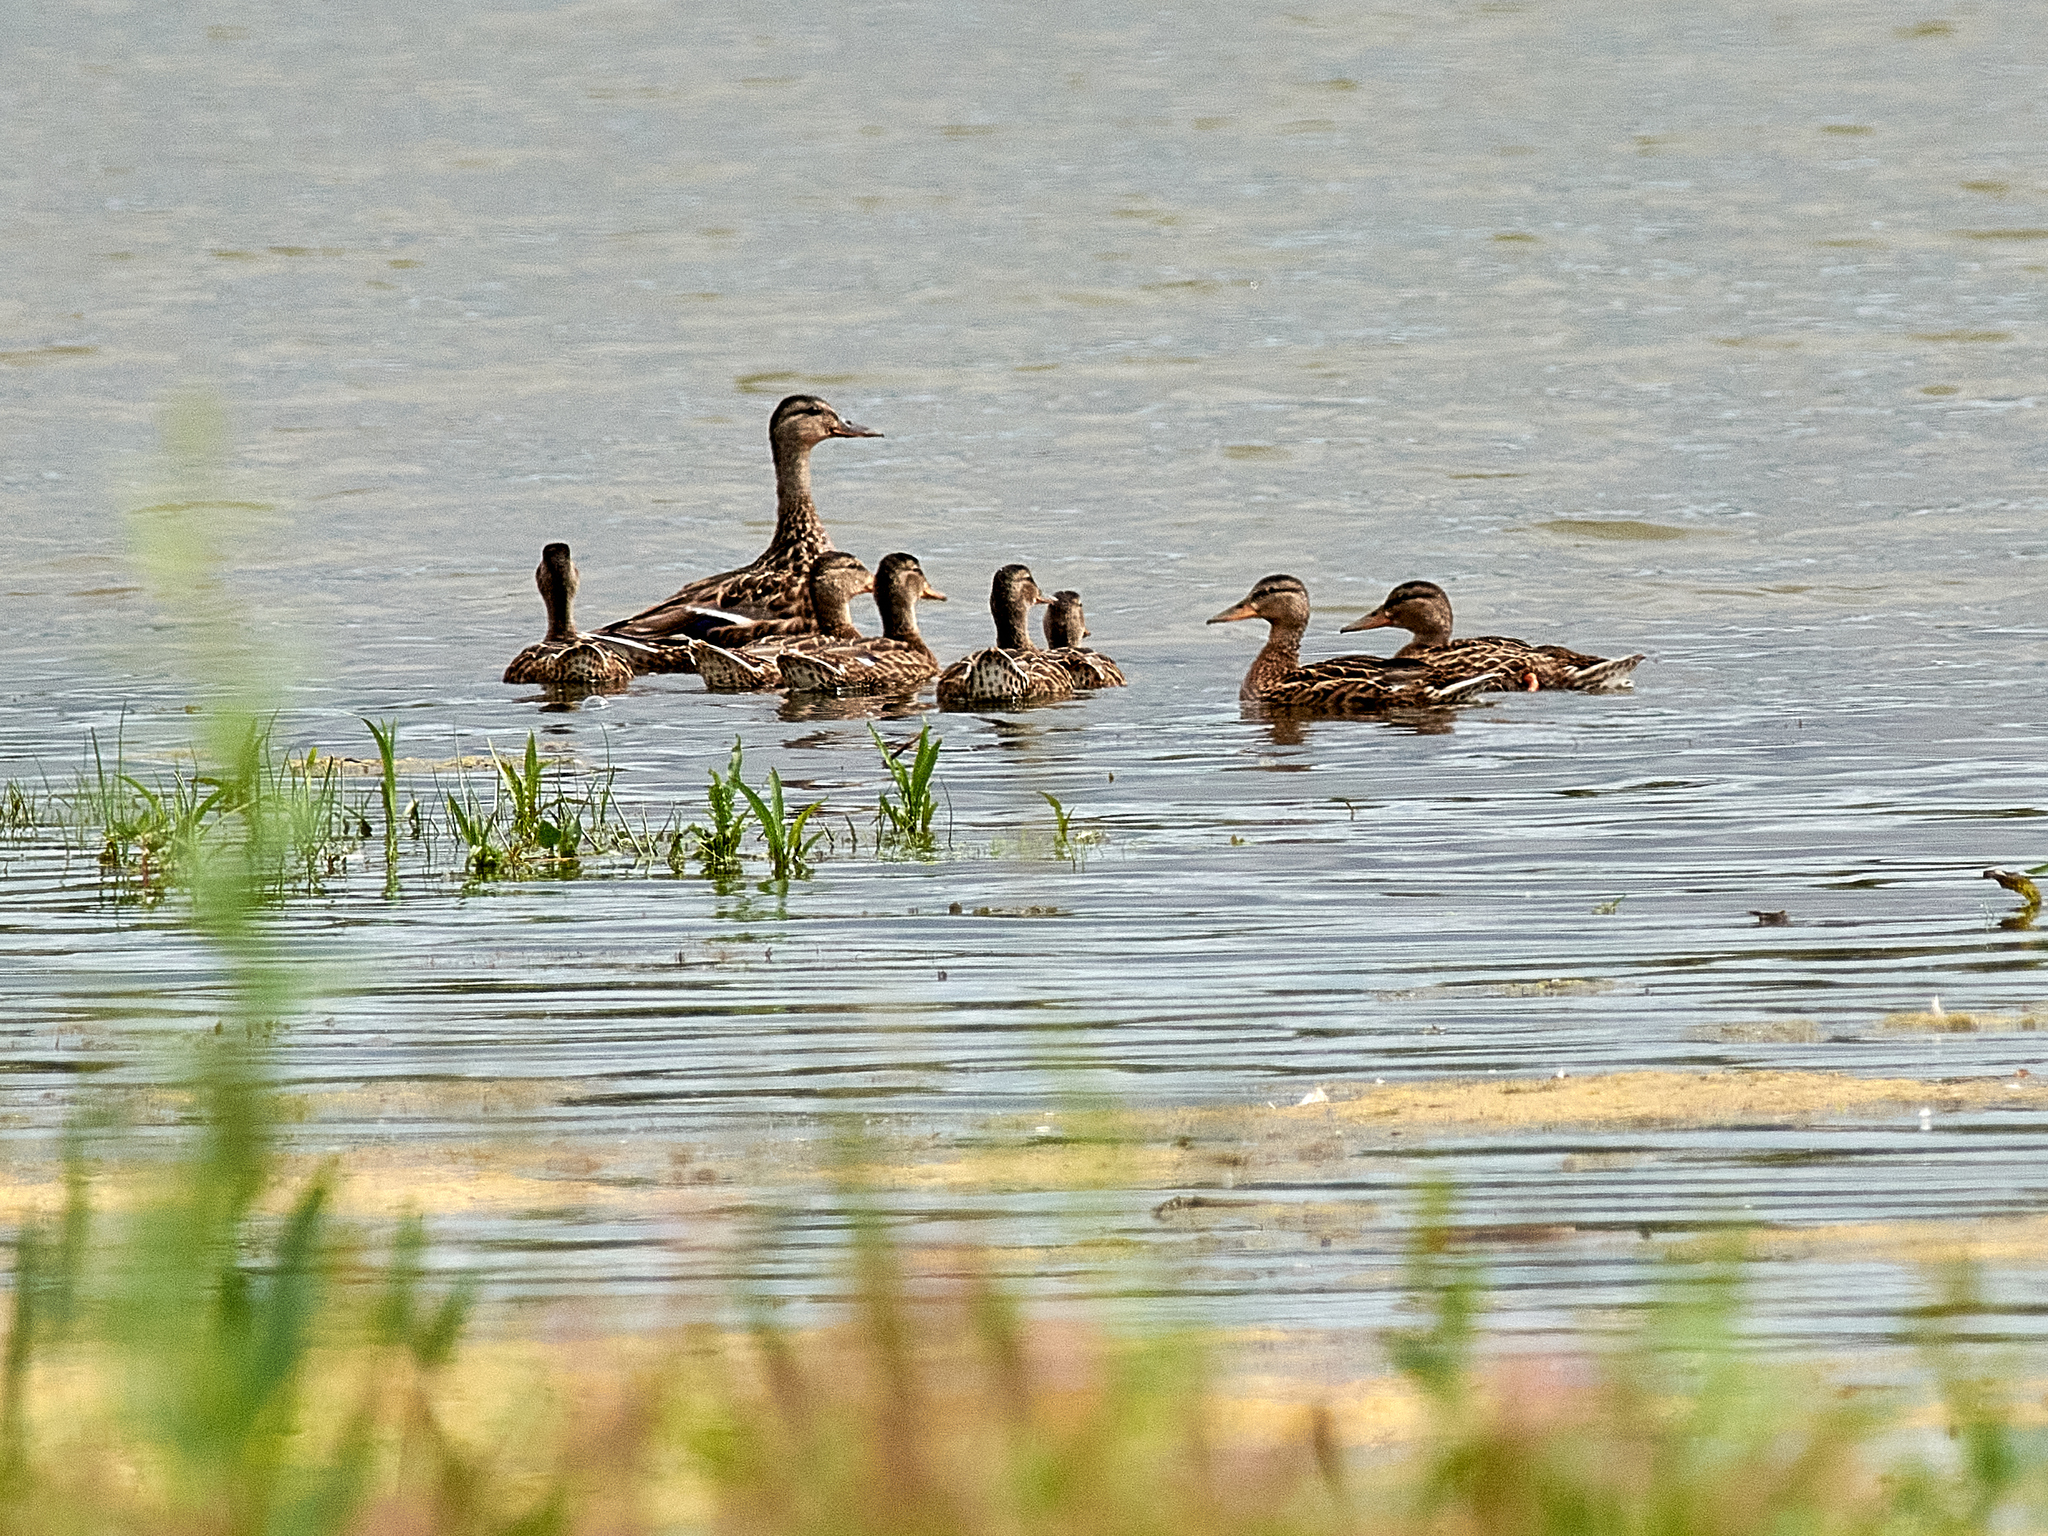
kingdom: Animalia
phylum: Chordata
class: Aves
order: Anseriformes
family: Anatidae
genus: Anas
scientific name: Anas platyrhynchos
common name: Mallard
